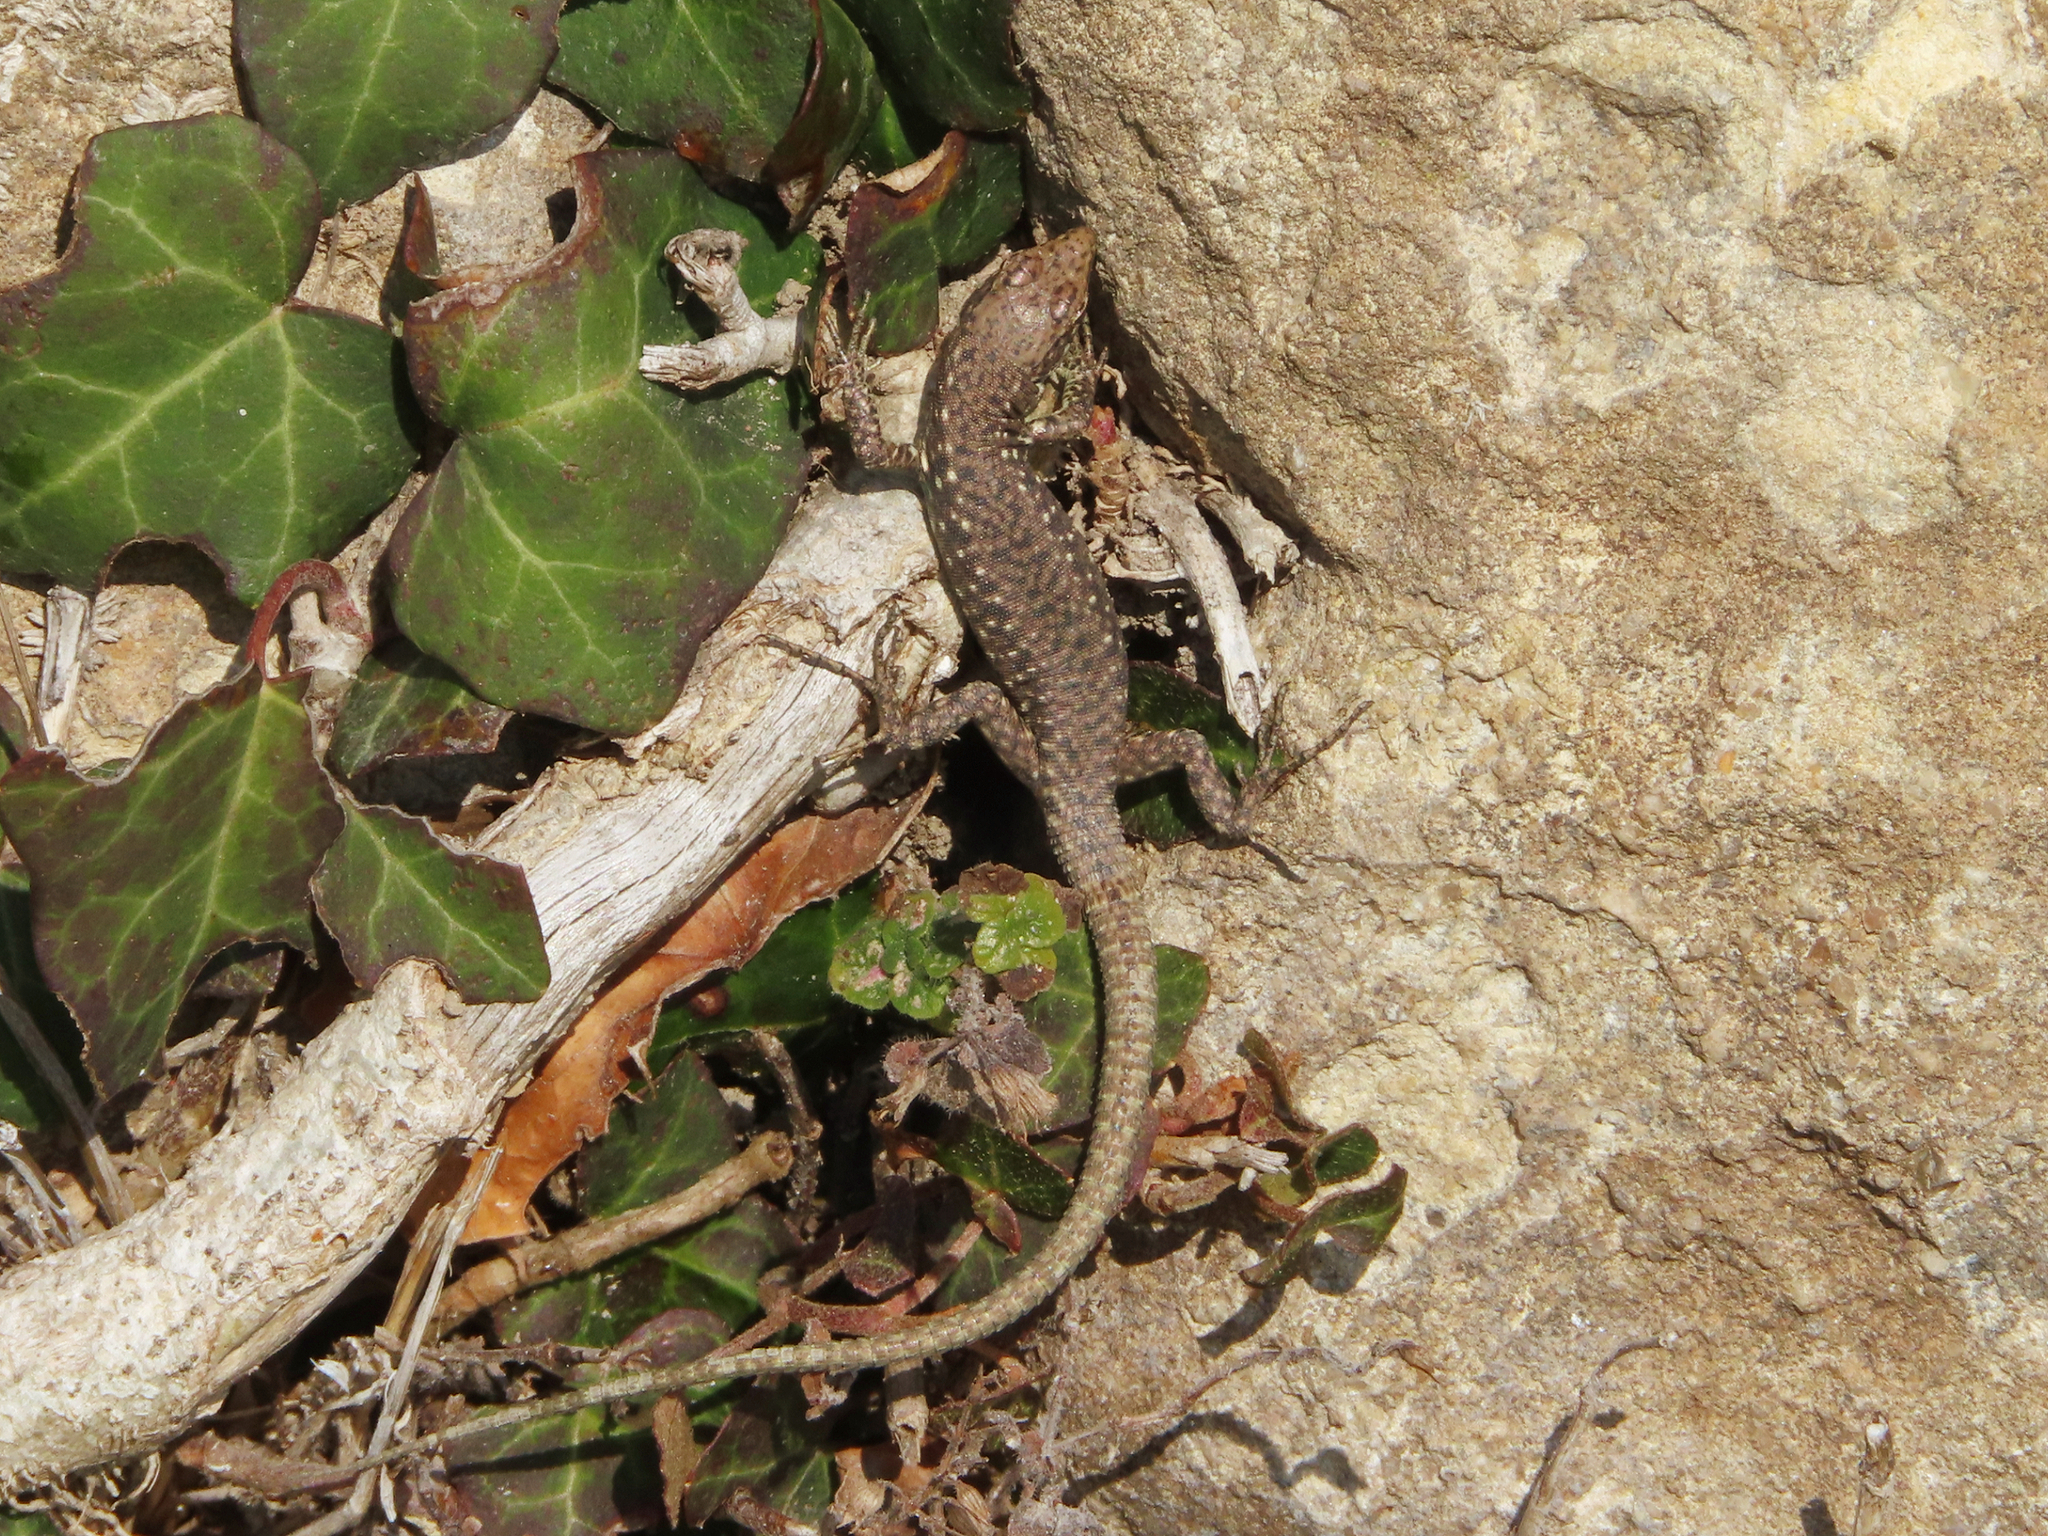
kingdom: Animalia
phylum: Chordata
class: Squamata
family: Lacertidae
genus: Darevskia
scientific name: Darevskia rudis
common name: Spiny-tailed lizard
